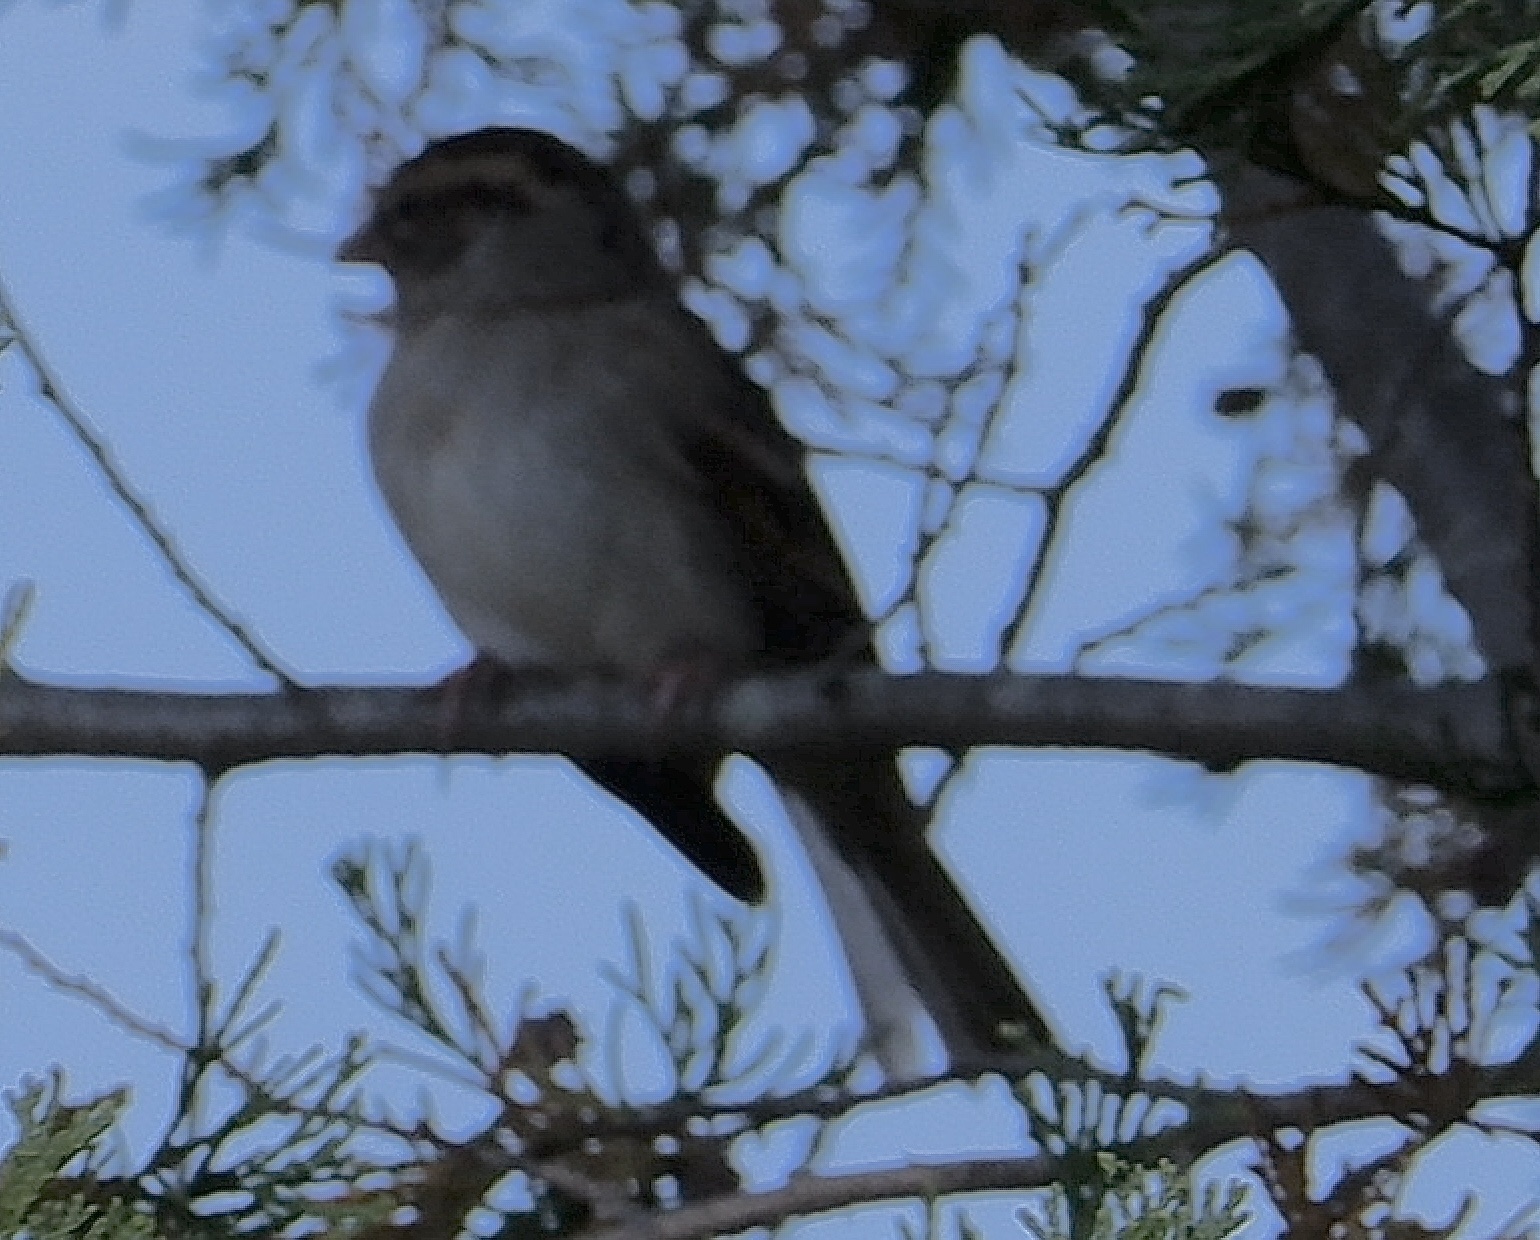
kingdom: Animalia
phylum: Chordata
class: Aves
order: Passeriformes
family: Passerellidae
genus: Spizella
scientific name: Spizella passerina
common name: Chipping sparrow
